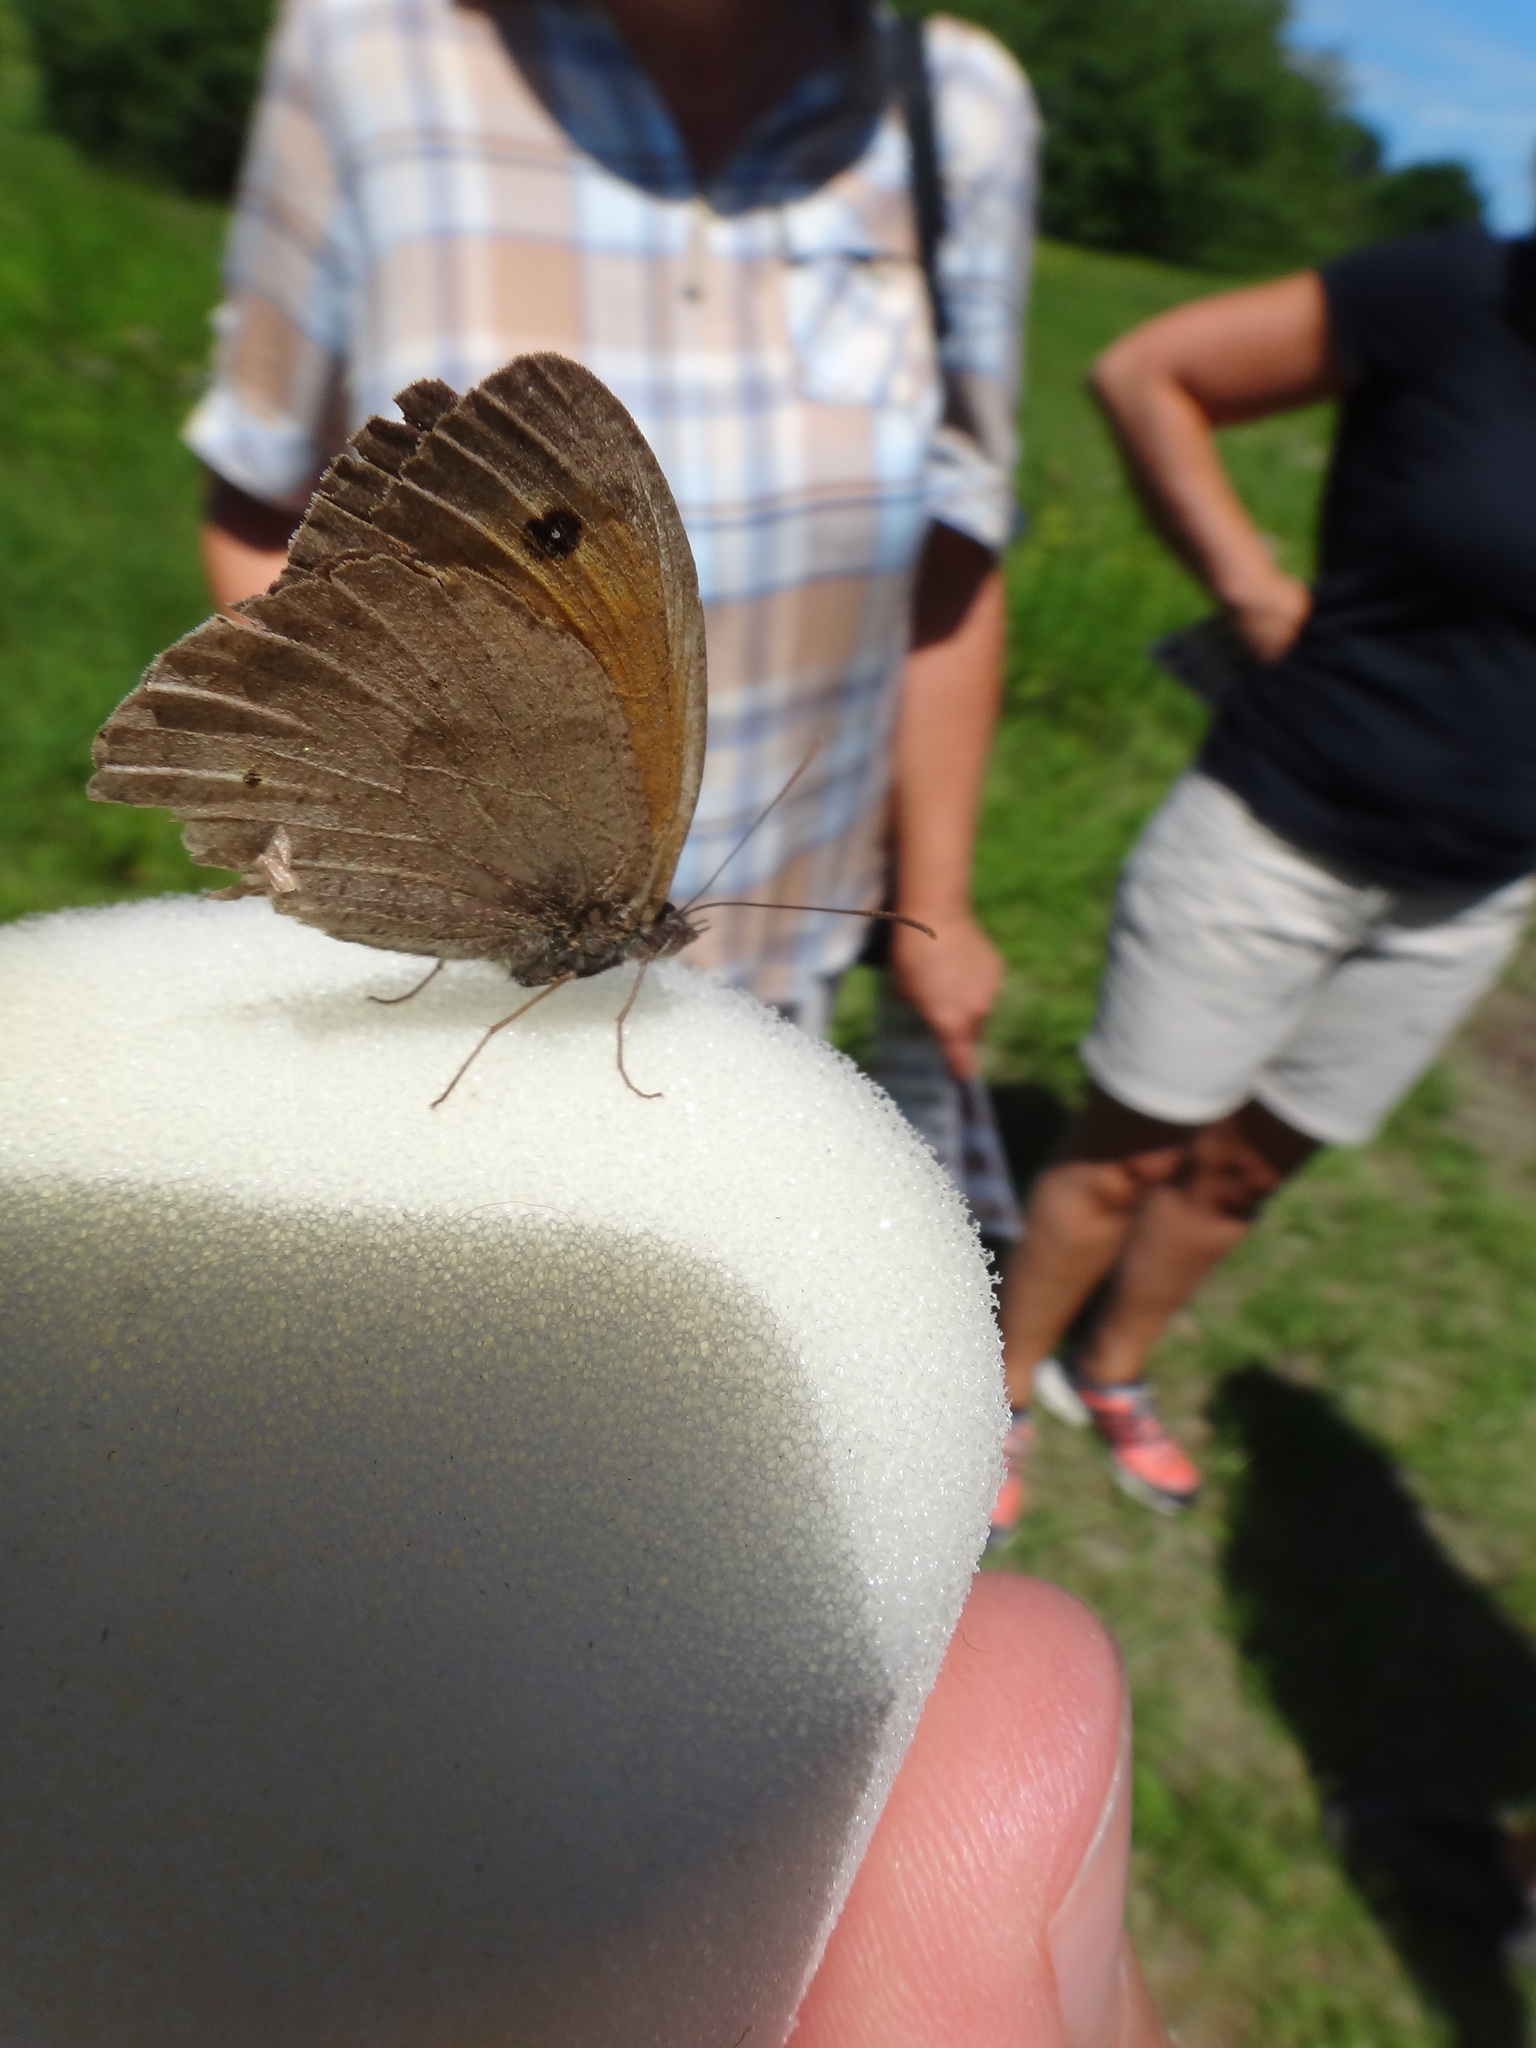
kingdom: Animalia
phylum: Arthropoda
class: Insecta
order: Lepidoptera
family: Nymphalidae
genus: Maniola
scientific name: Maniola jurtina
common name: Meadow brown
